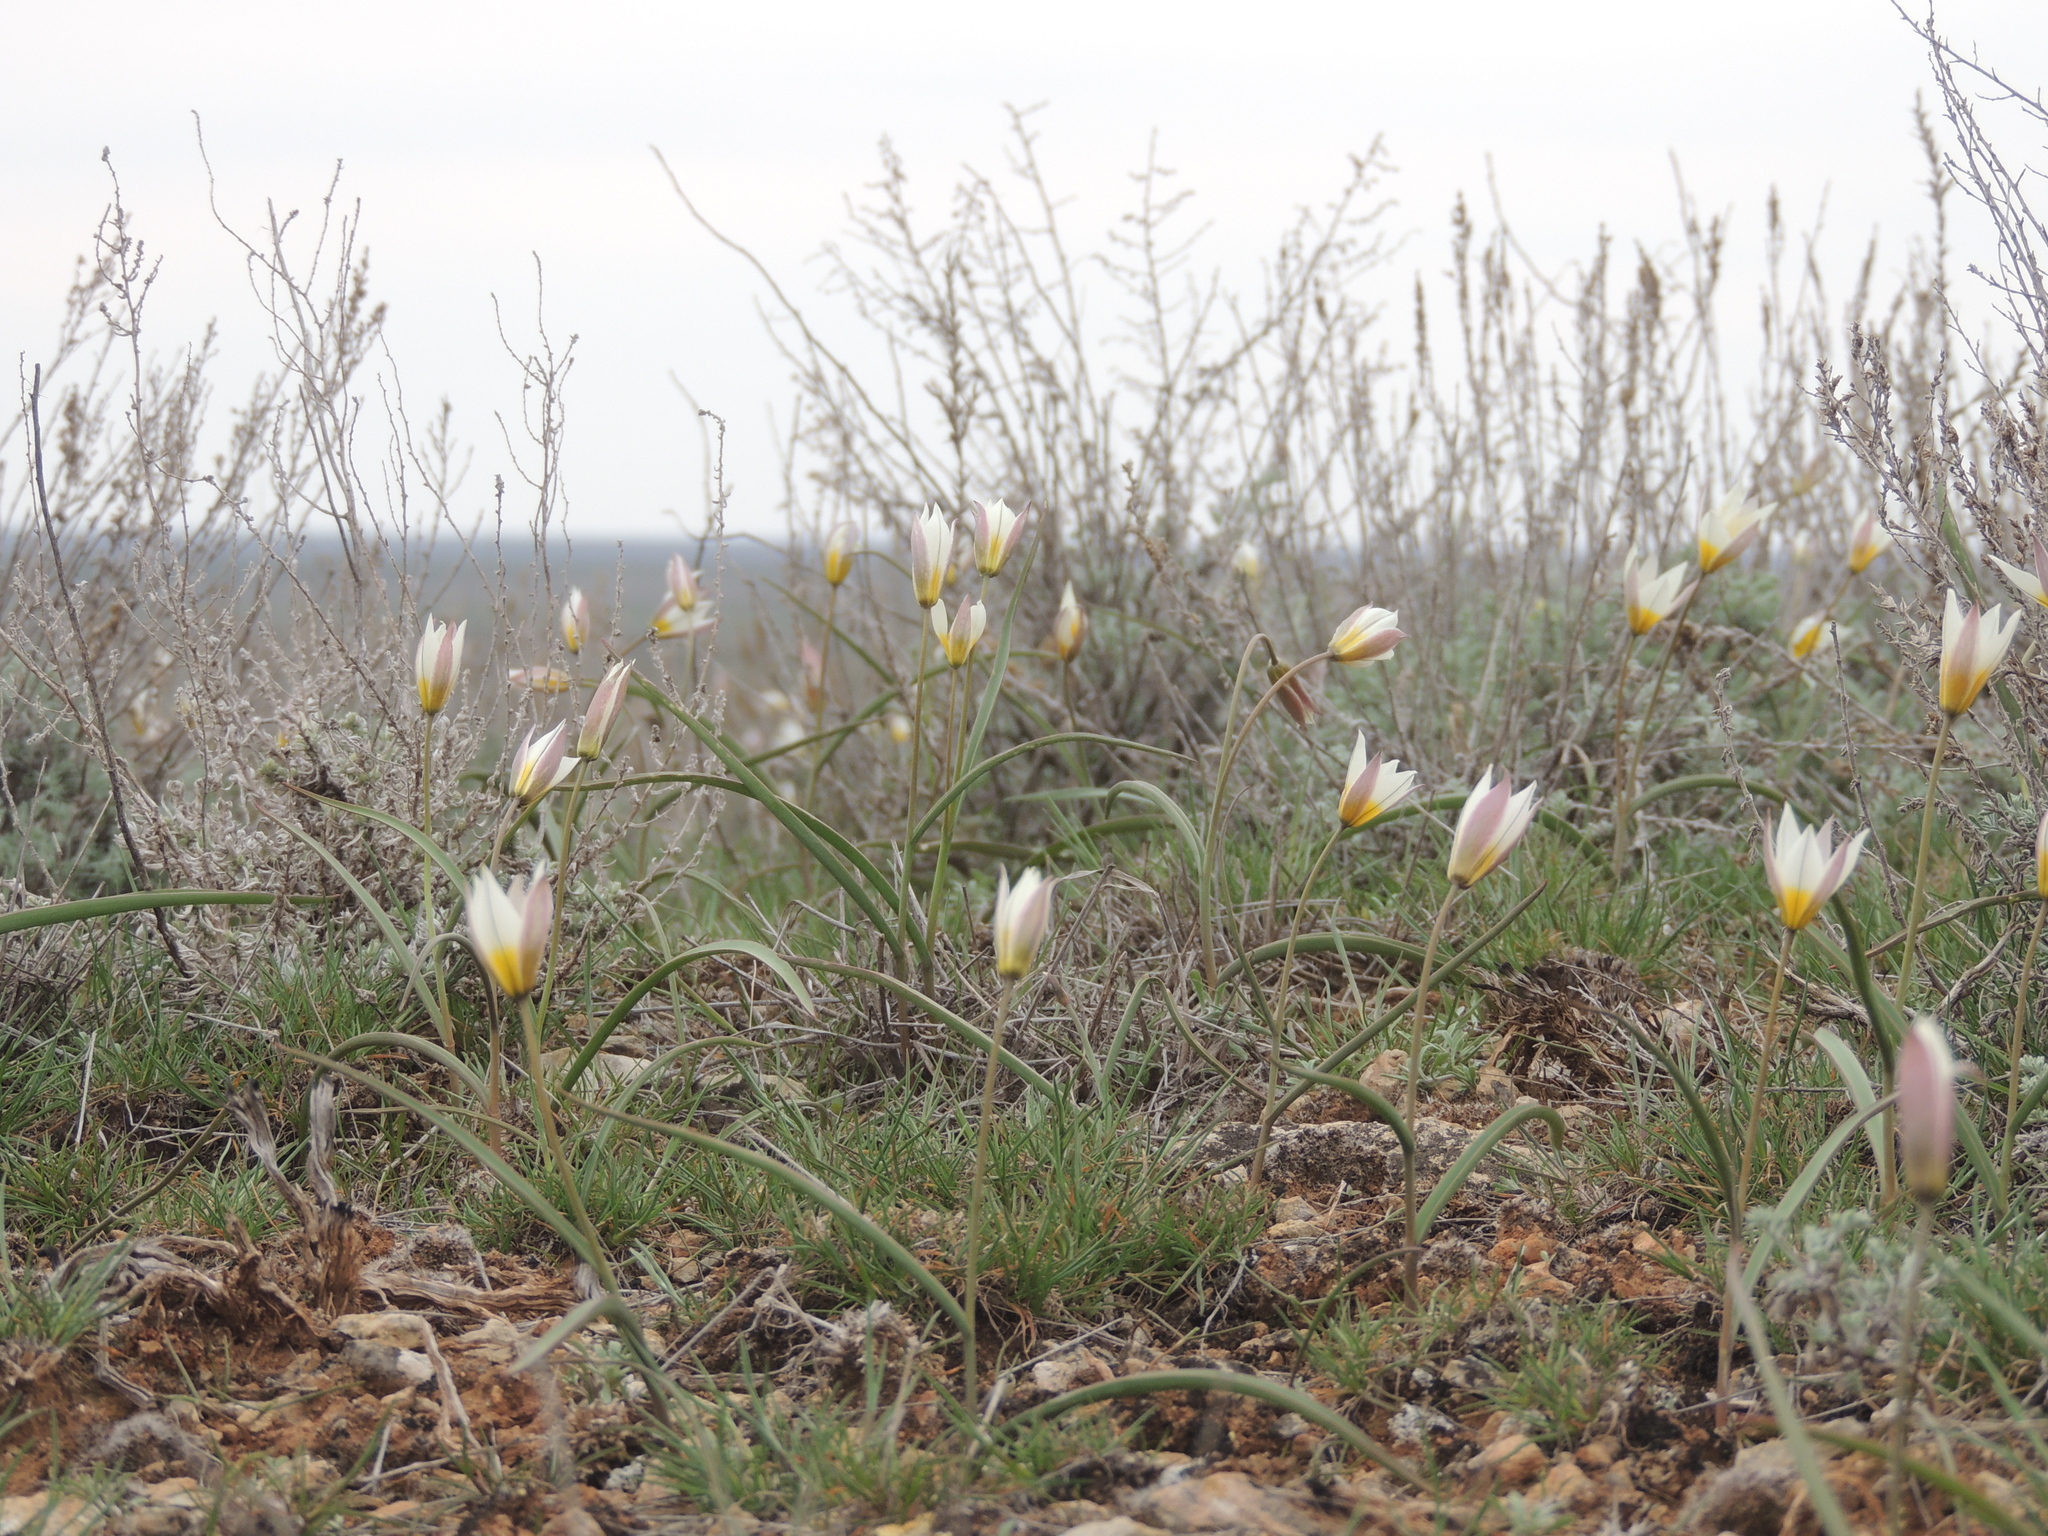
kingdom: Plantae
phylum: Tracheophyta
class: Liliopsida
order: Liliales
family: Liliaceae
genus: Tulipa
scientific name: Tulipa biflora
